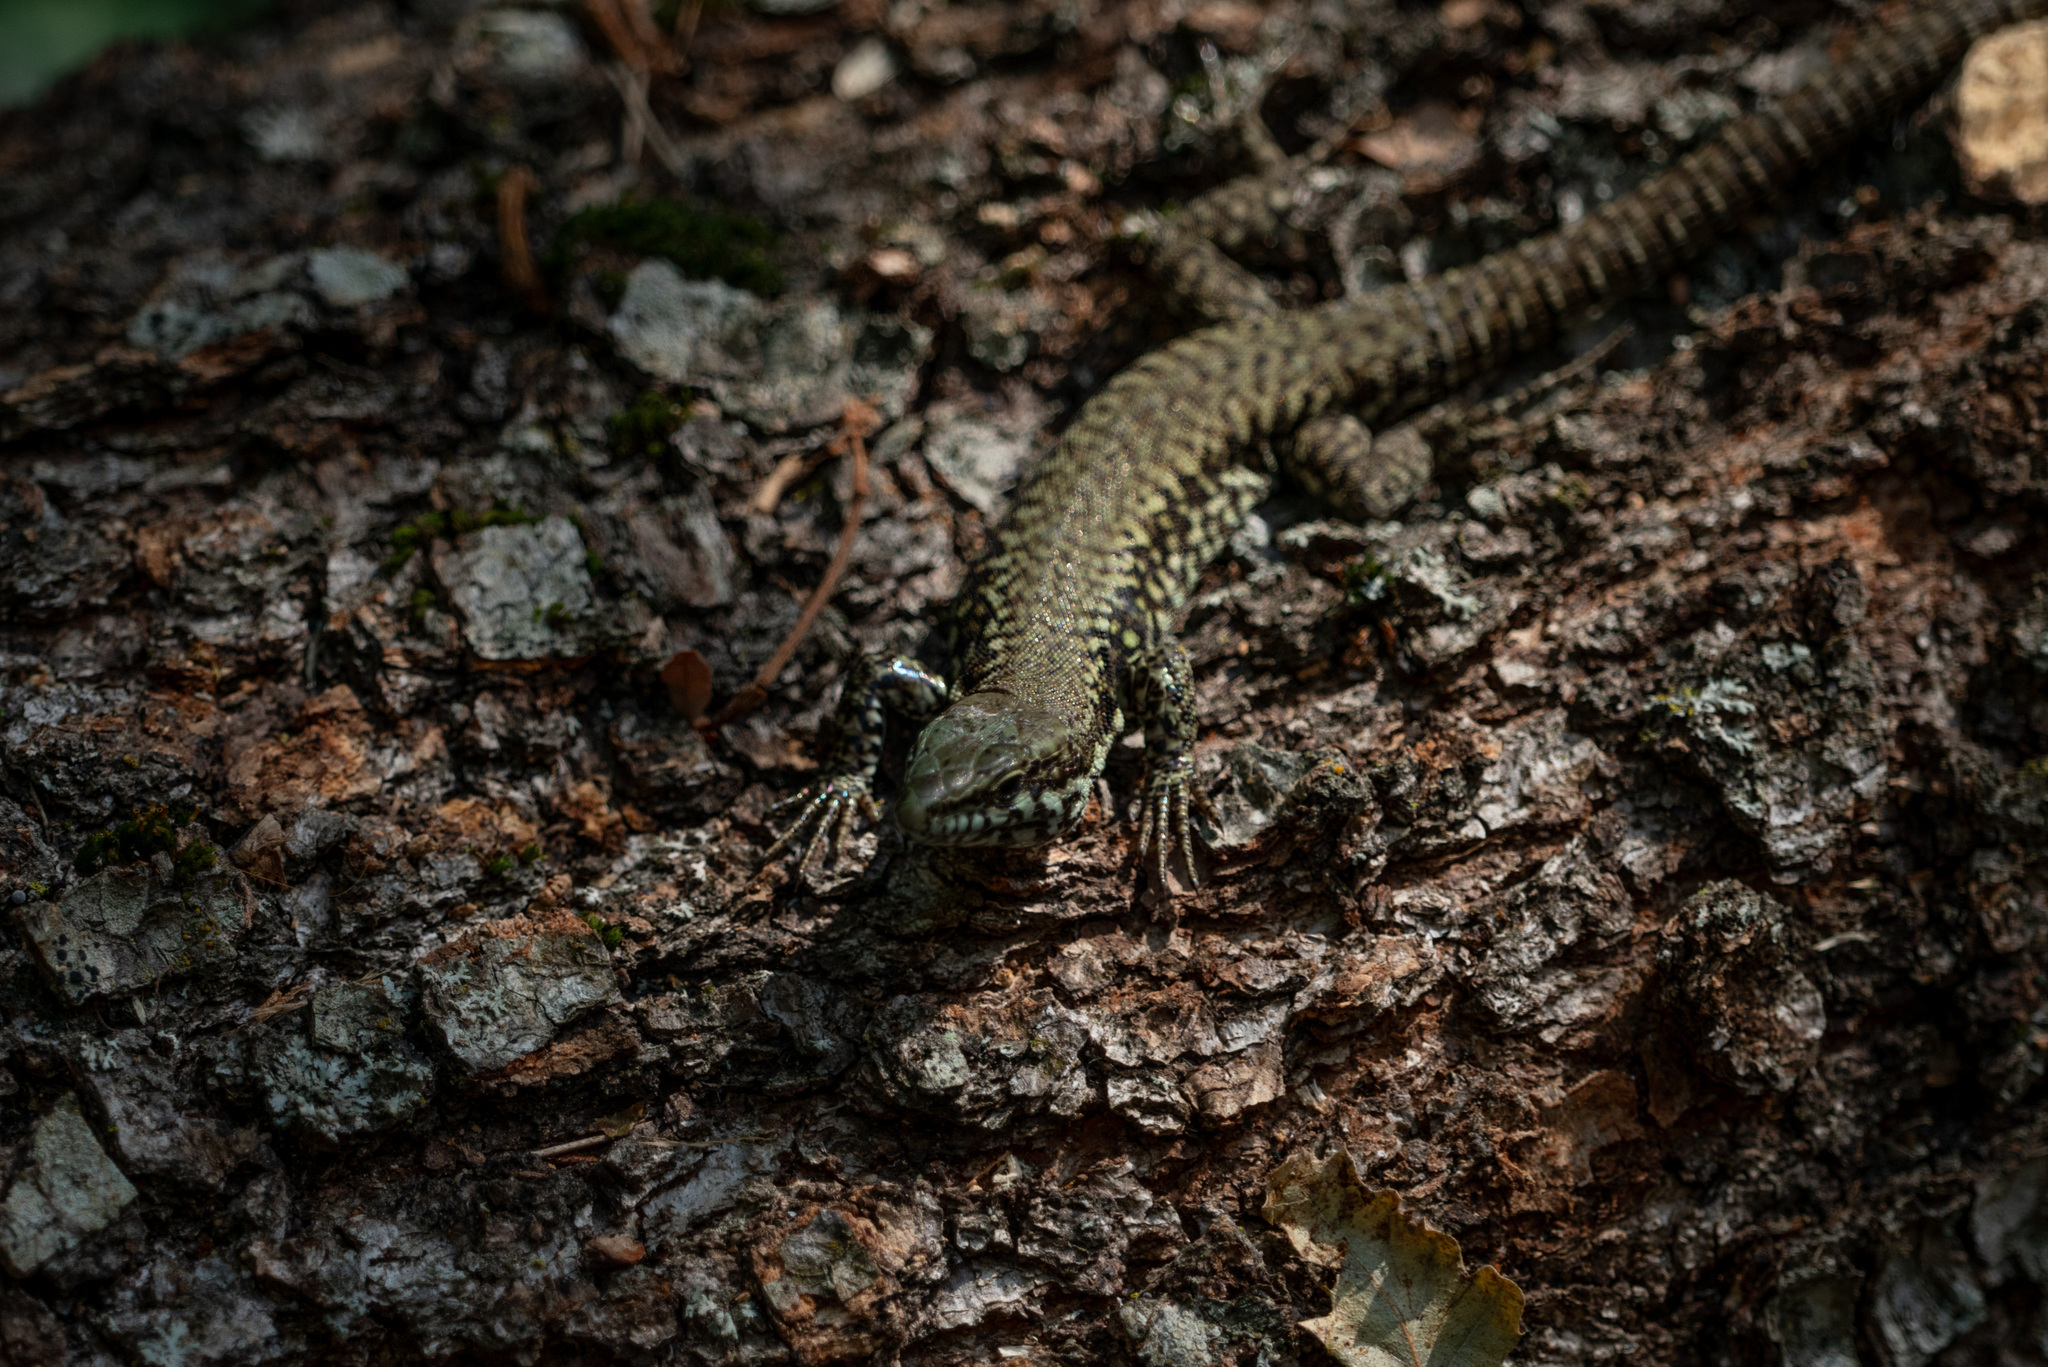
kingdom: Animalia
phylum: Chordata
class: Squamata
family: Lacertidae
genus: Podarcis
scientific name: Podarcis muralis
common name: Common wall lizard
